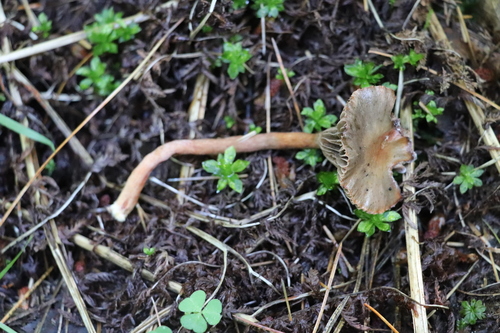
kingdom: Fungi
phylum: Basidiomycota
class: Agaricomycetes
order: Boletales
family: Gomphidiaceae
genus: Chroogomphus
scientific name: Chroogomphus
